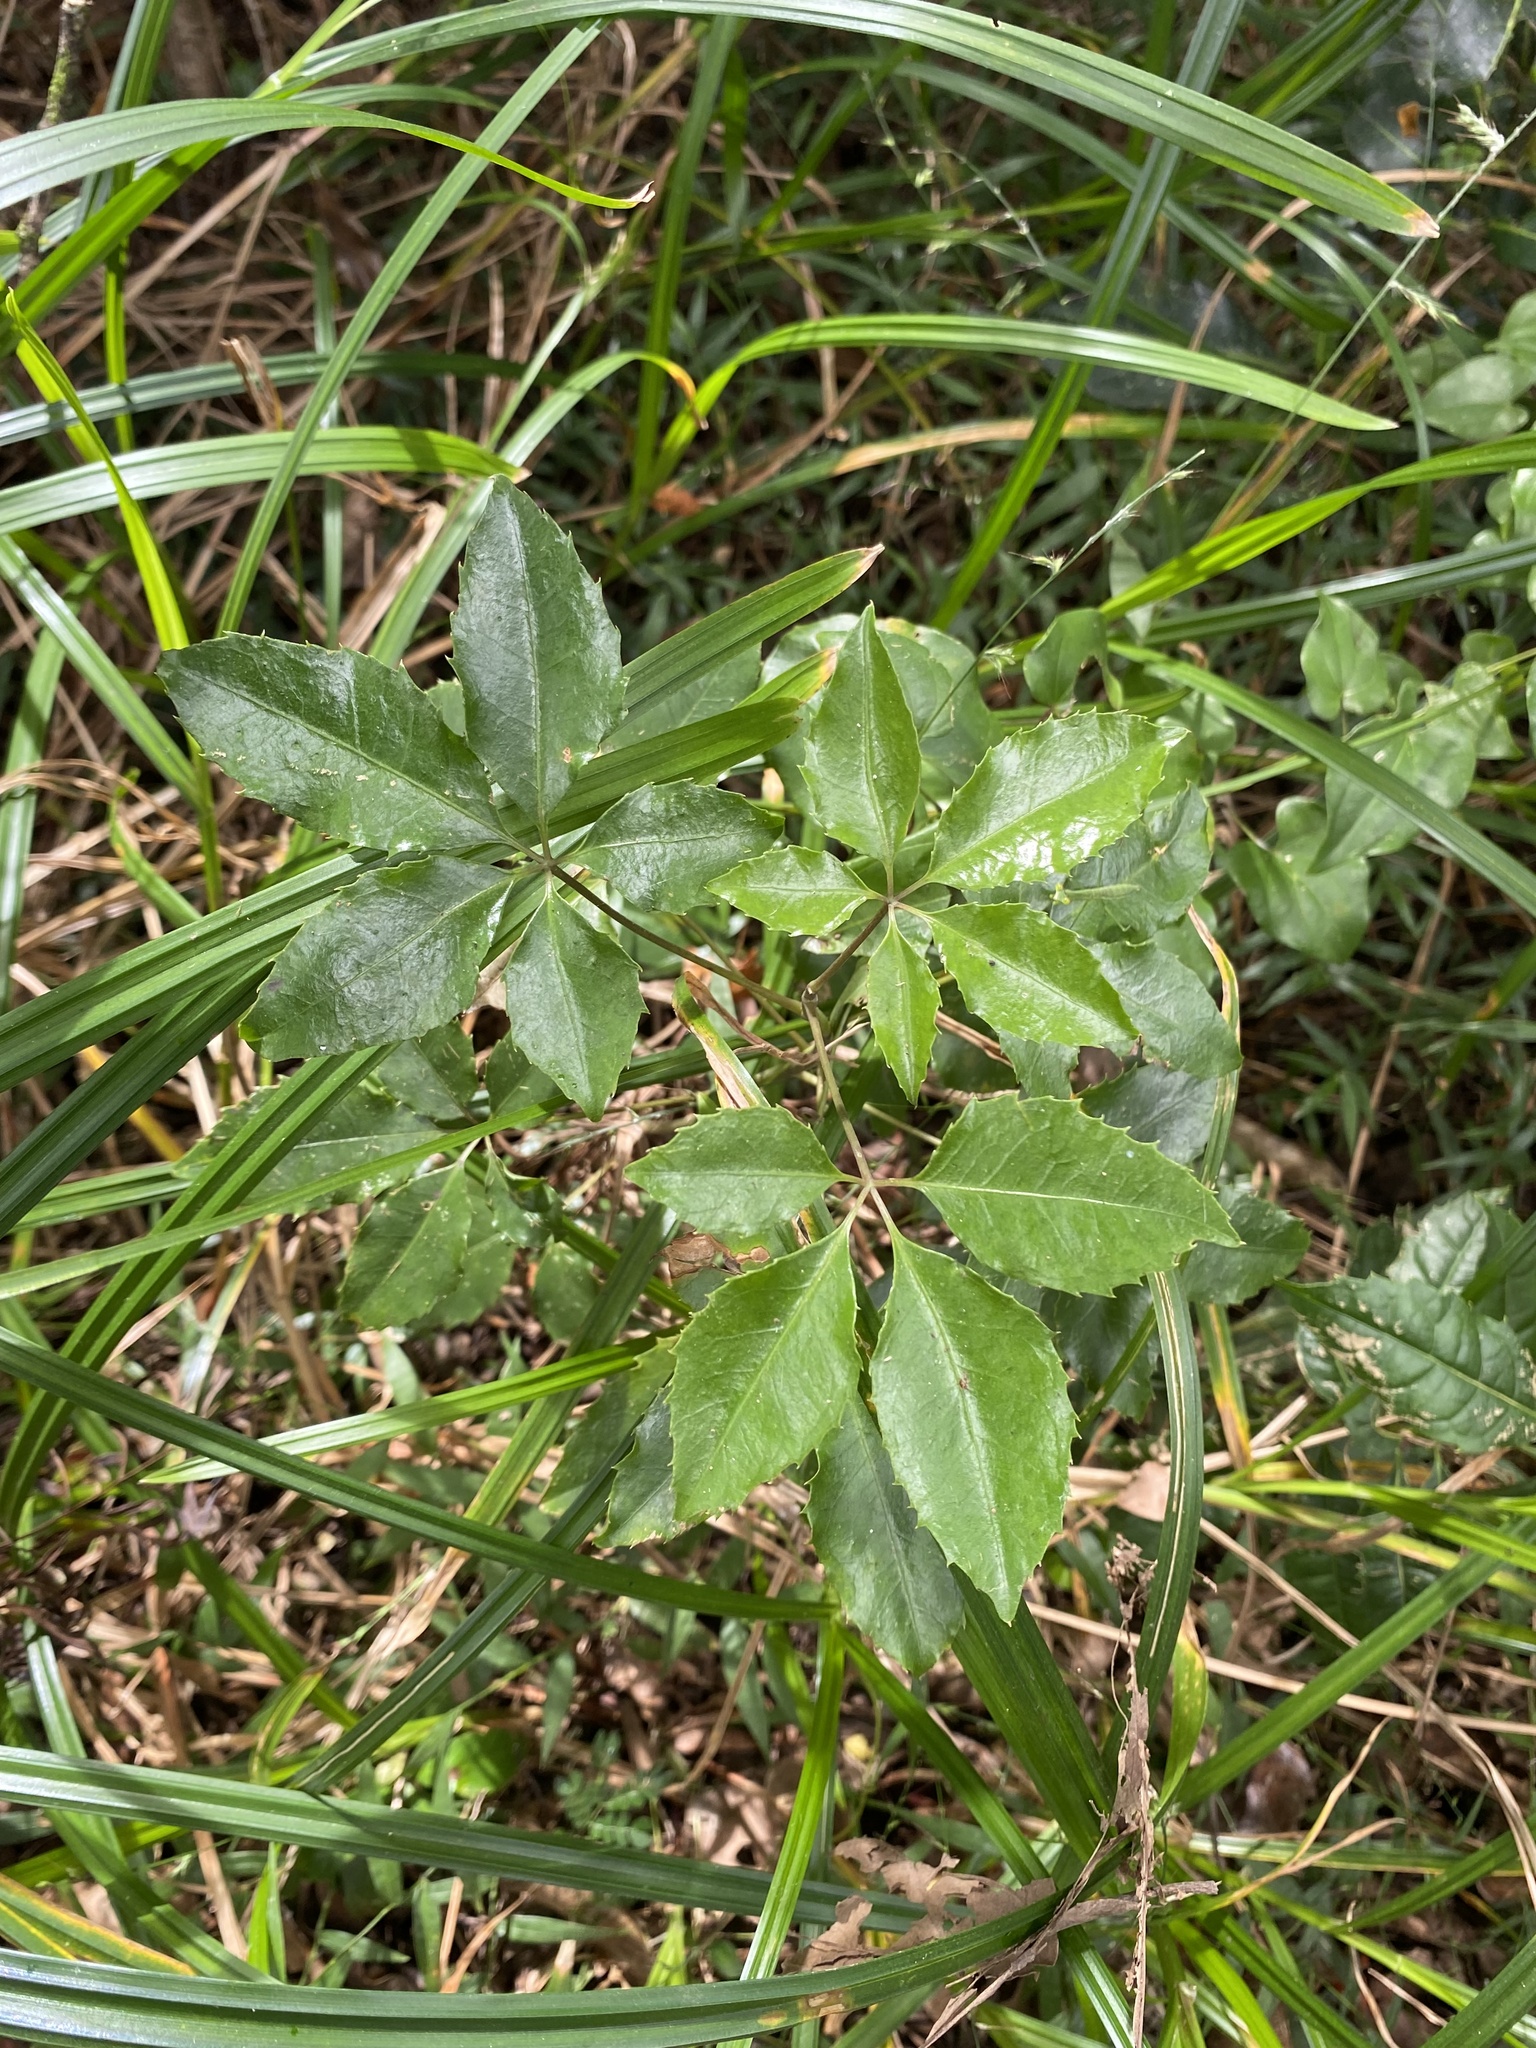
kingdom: Plantae
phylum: Tracheophyta
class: Magnoliopsida
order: Apiales
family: Araliaceae
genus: Neocussonia
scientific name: Neocussonia umbellifera
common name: False cabbage tree
